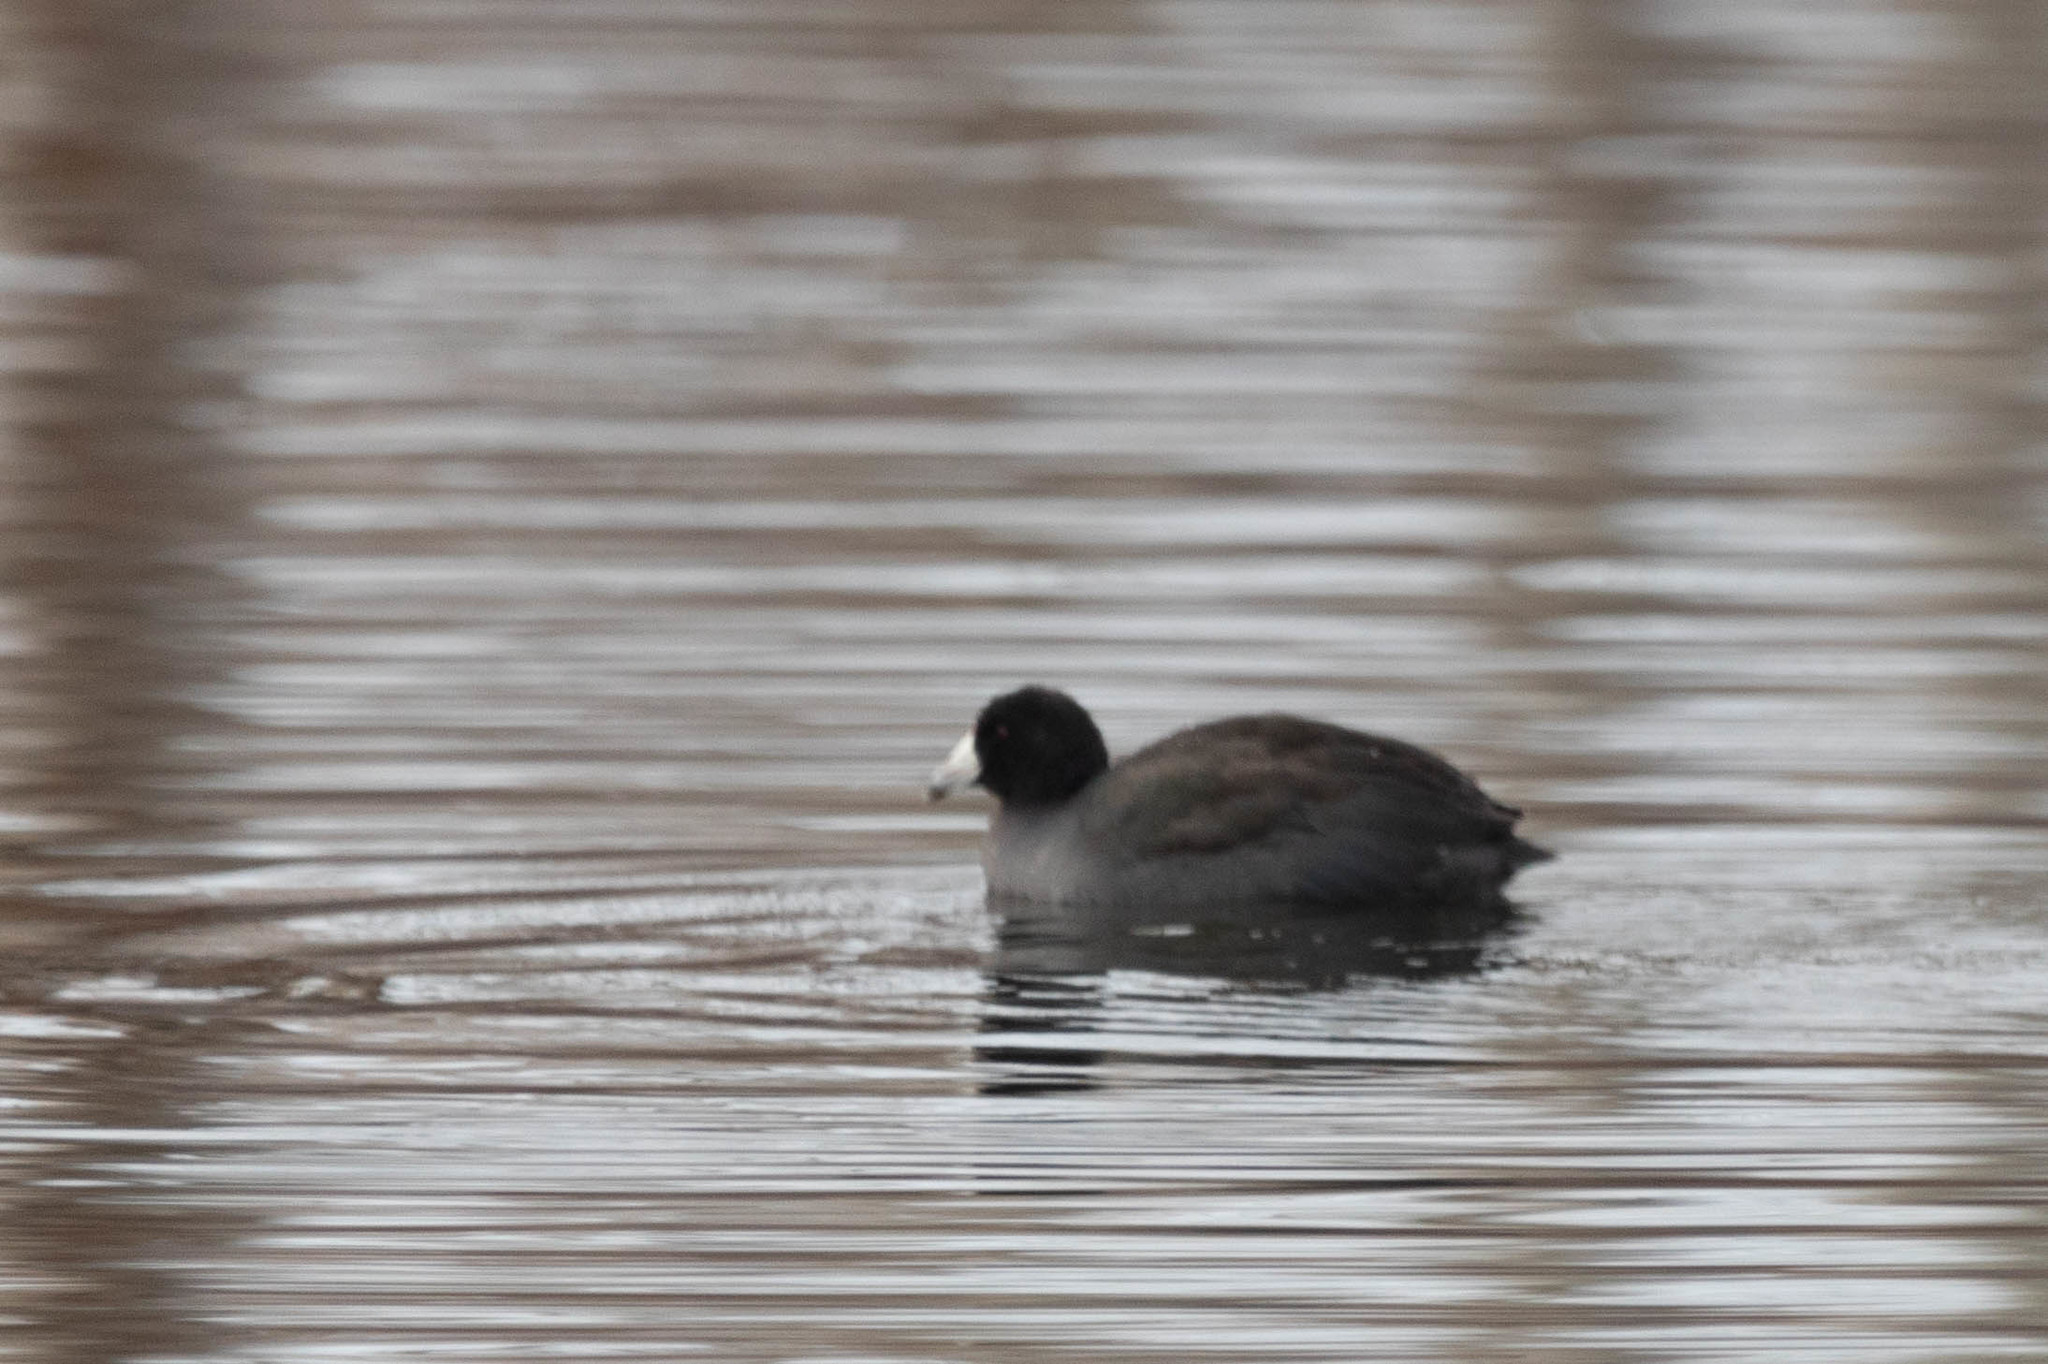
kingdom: Animalia
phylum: Chordata
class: Aves
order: Gruiformes
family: Rallidae
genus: Fulica
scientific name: Fulica americana
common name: American coot
